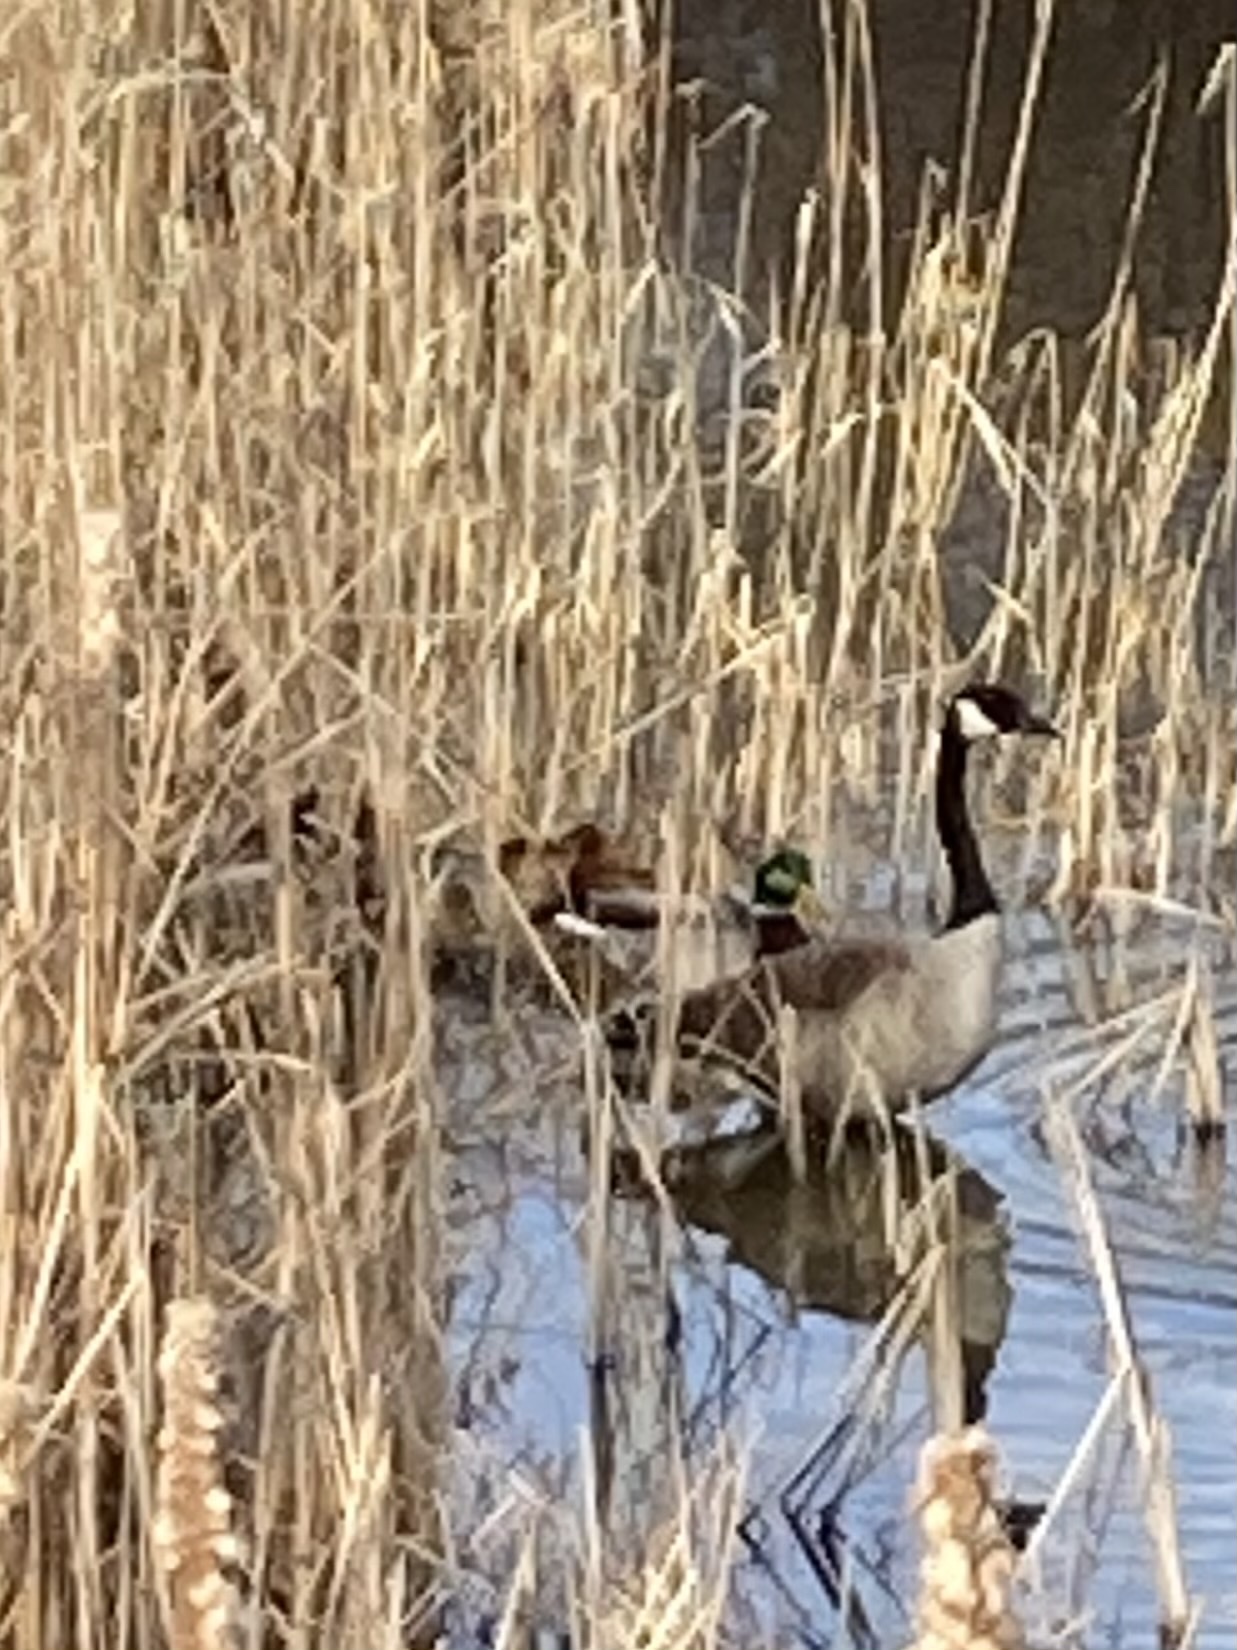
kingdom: Animalia
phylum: Chordata
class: Aves
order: Anseriformes
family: Anatidae
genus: Anas
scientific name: Anas platyrhynchos
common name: Mallard
